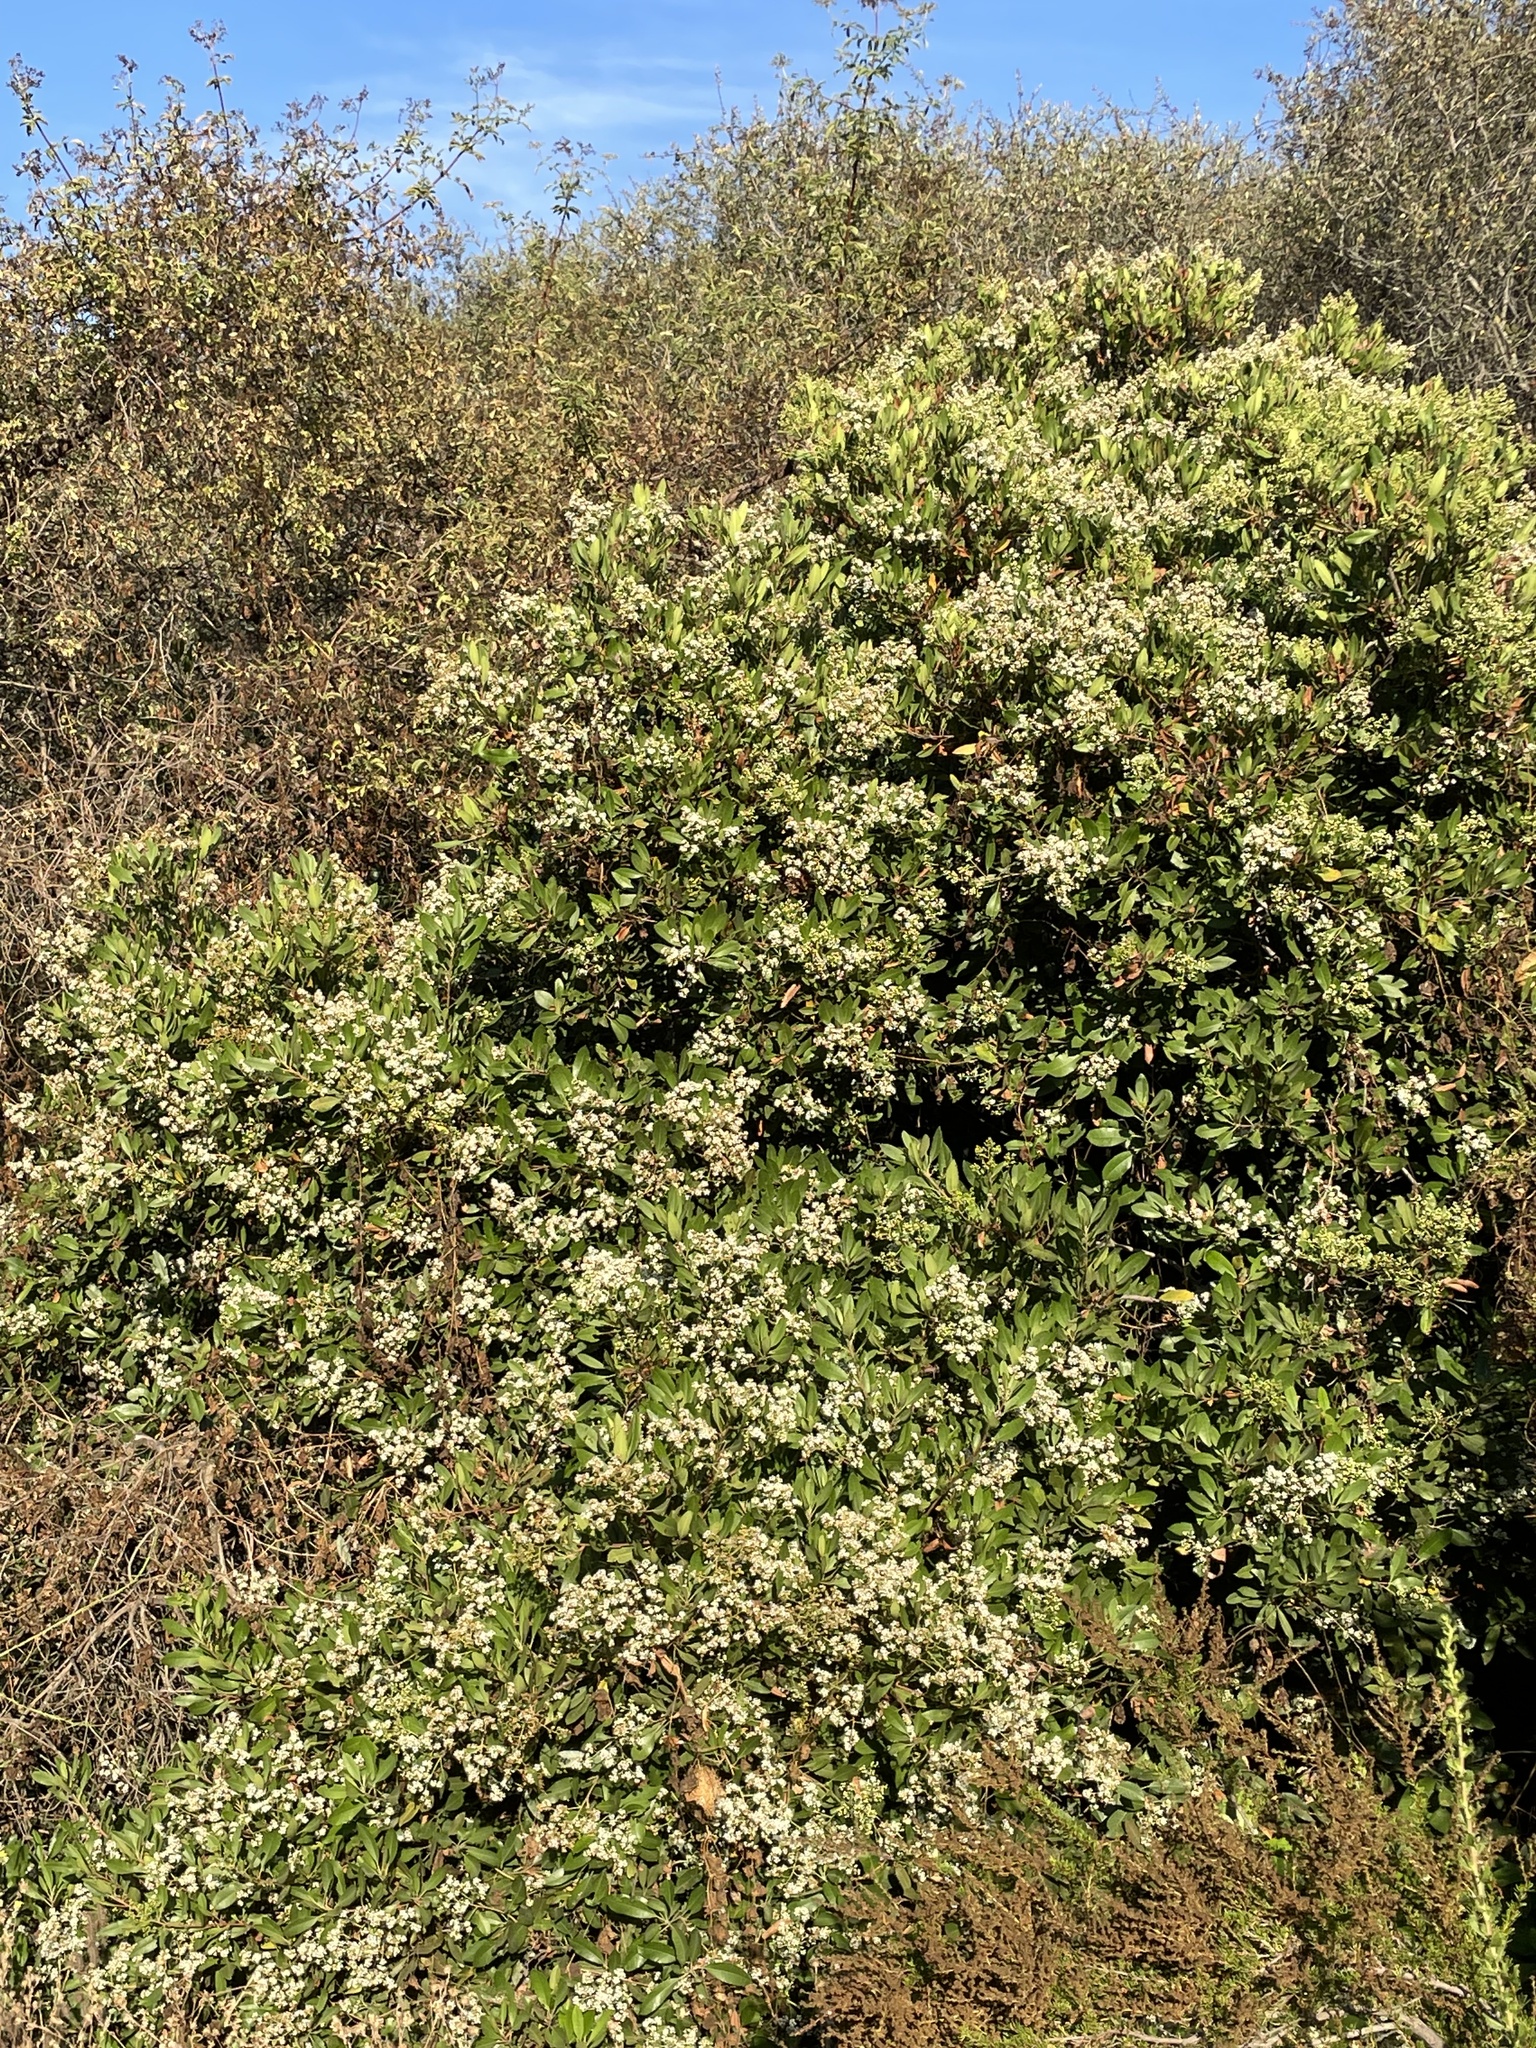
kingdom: Plantae
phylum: Tracheophyta
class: Magnoliopsida
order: Rosales
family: Rosaceae
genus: Heteromeles
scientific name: Heteromeles arbutifolia
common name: California-holly
